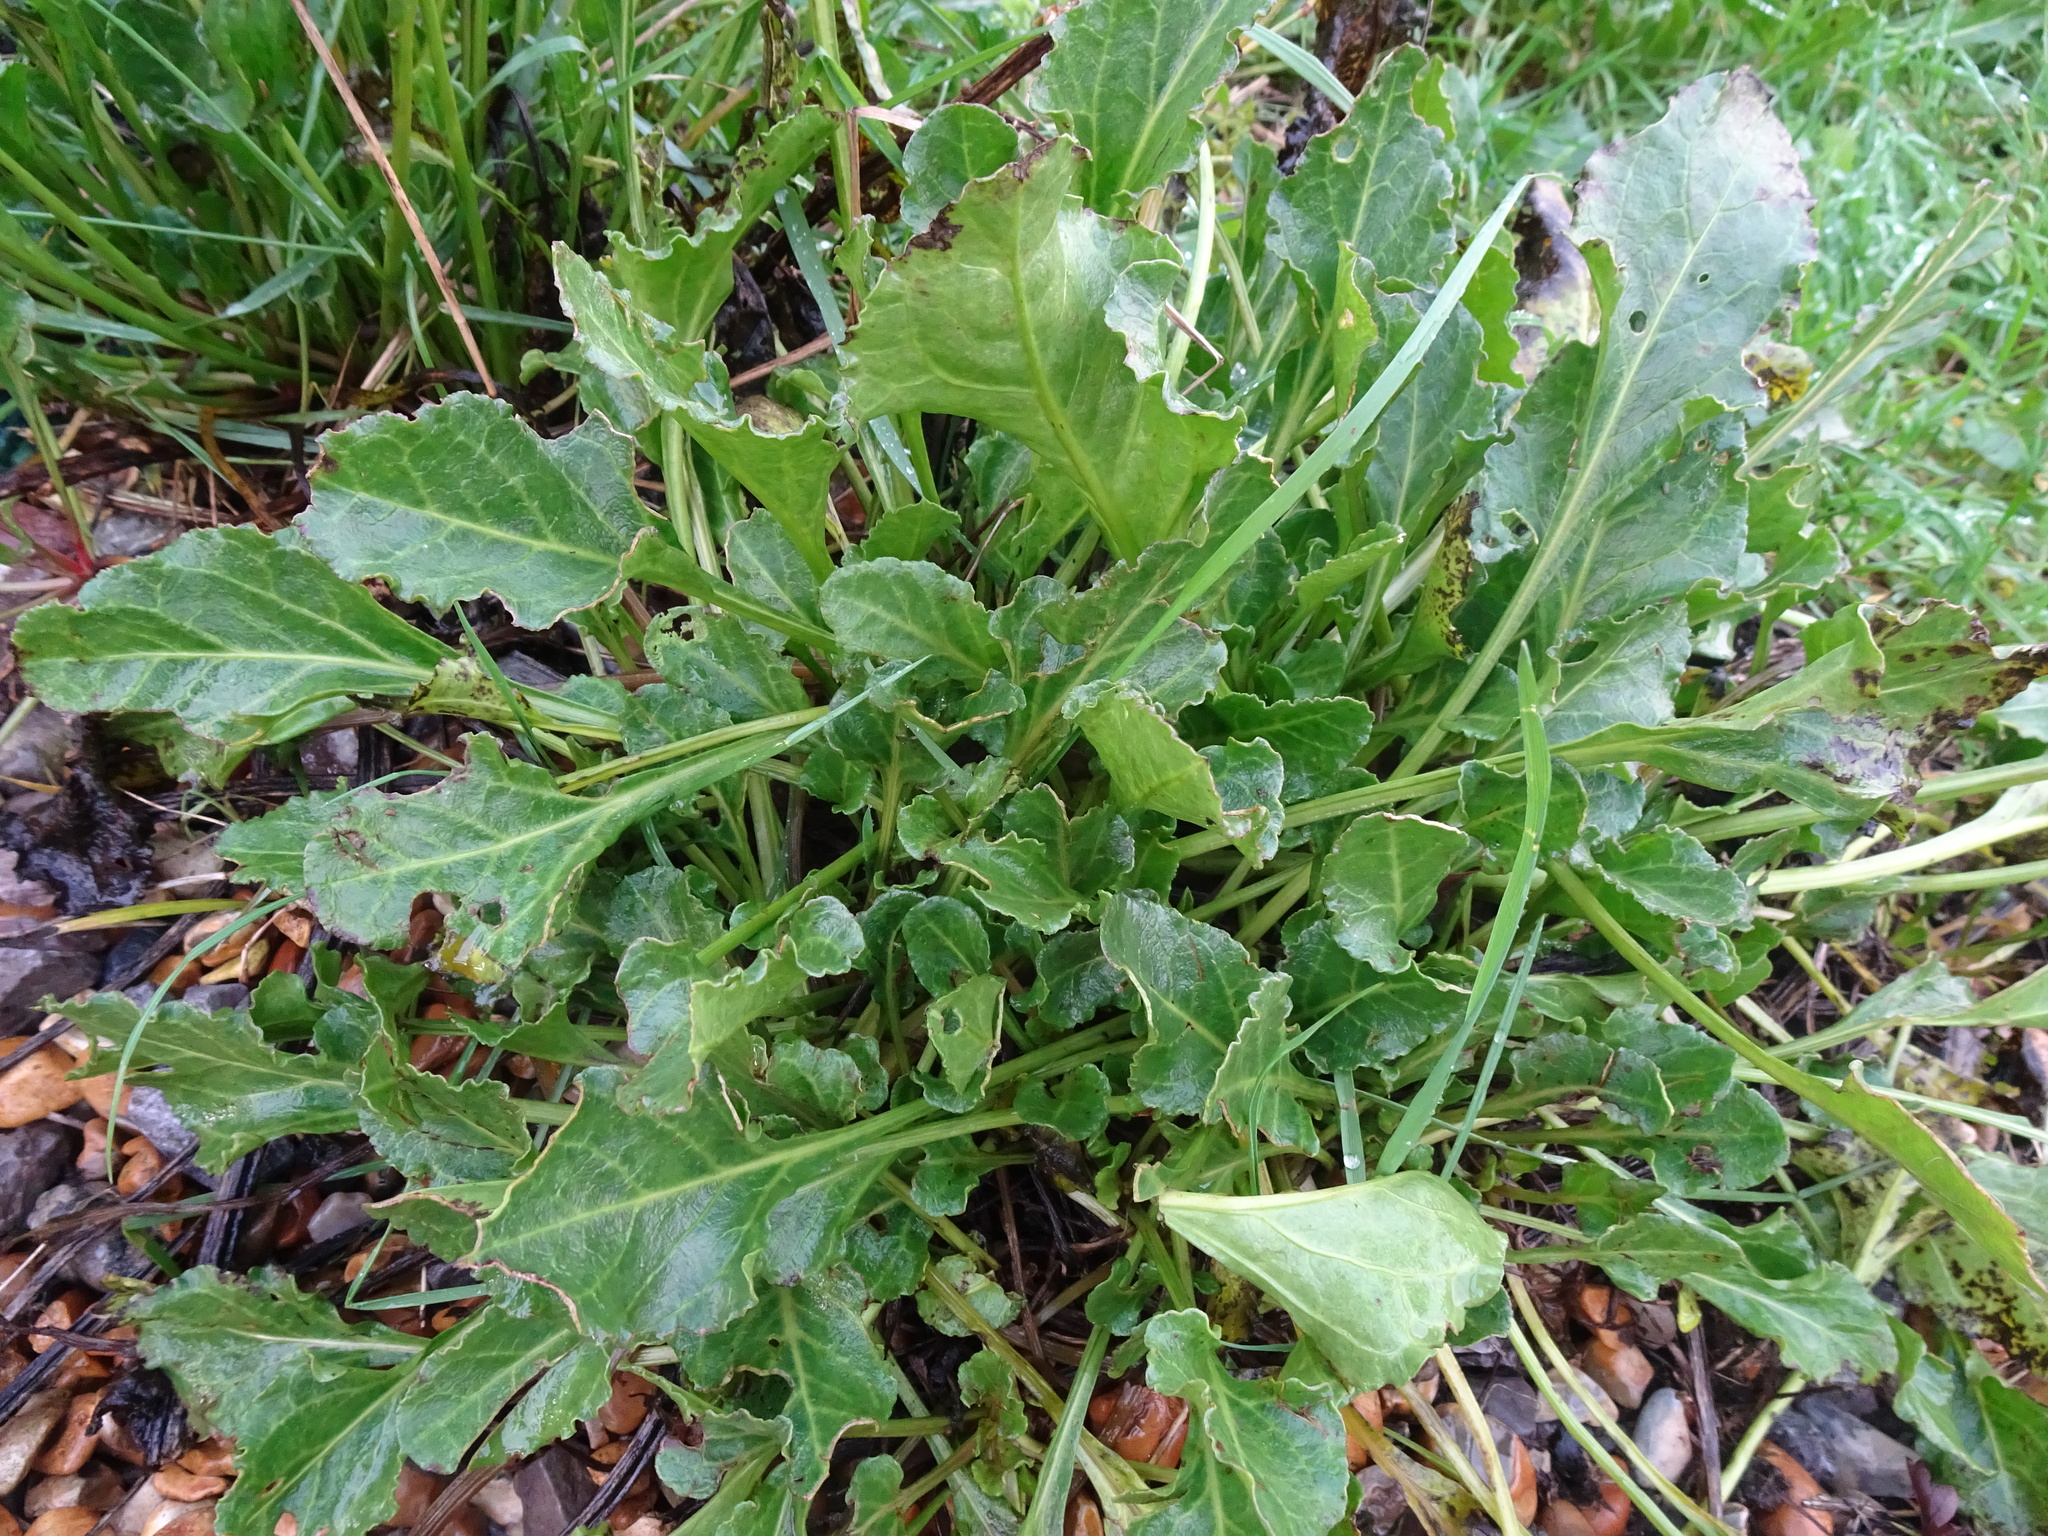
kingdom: Plantae
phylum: Tracheophyta
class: Magnoliopsida
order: Caryophyllales
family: Amaranthaceae
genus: Beta
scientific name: Beta vulgaris
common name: Beet
